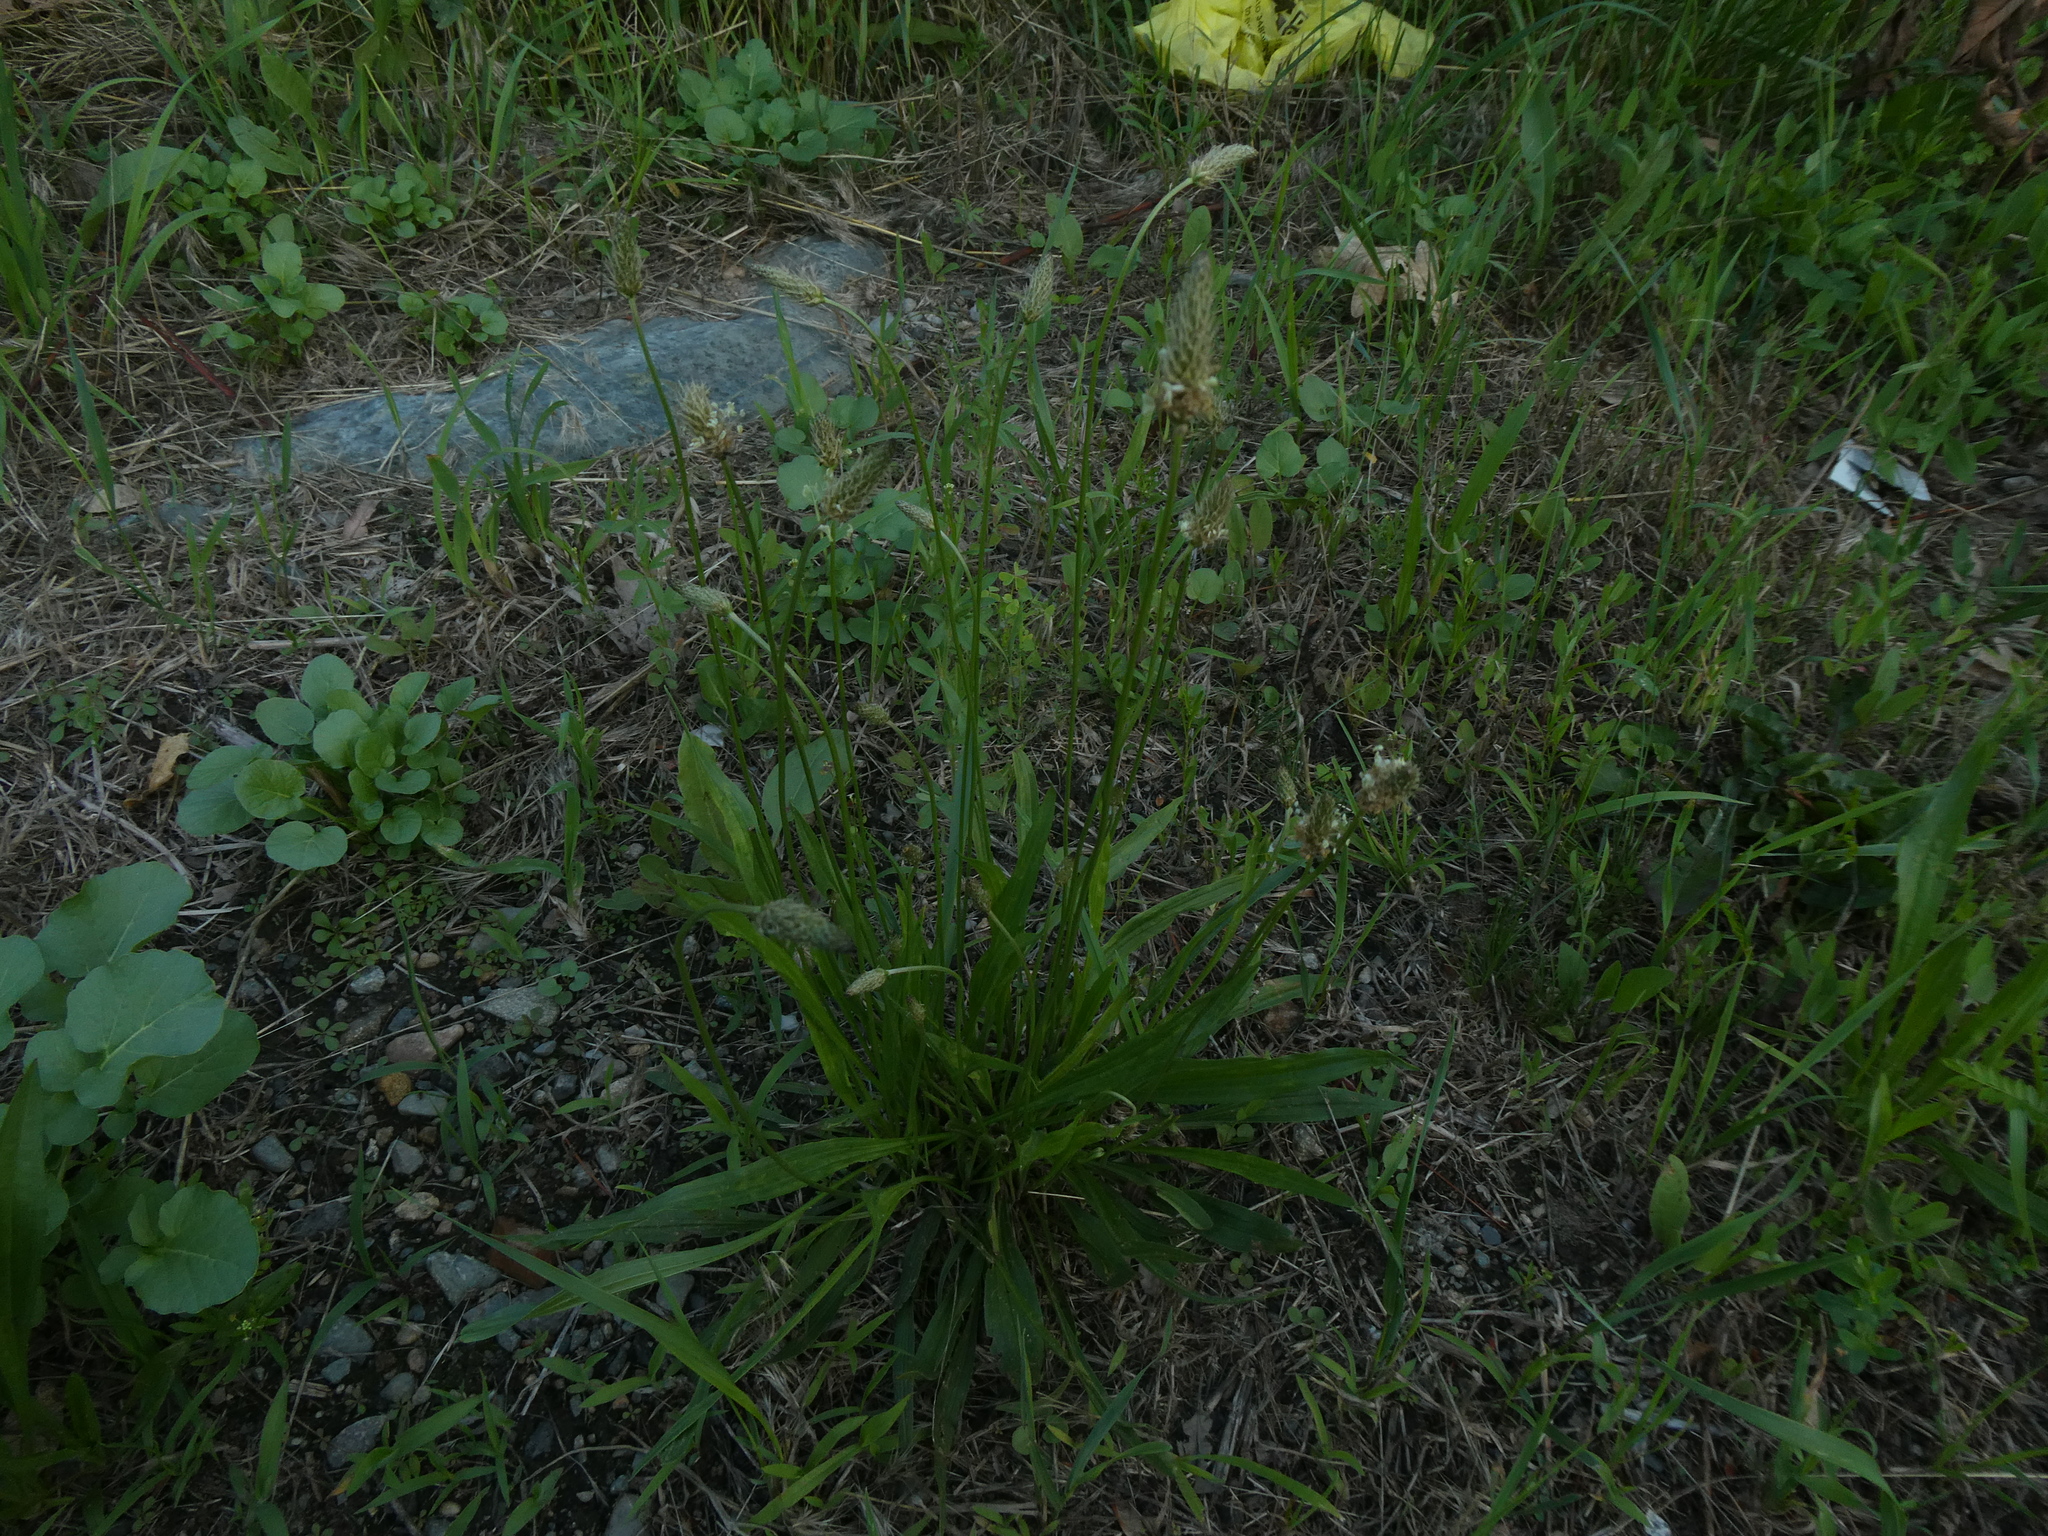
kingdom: Plantae
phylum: Tracheophyta
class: Magnoliopsida
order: Lamiales
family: Plantaginaceae
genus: Plantago
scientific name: Plantago lanceolata
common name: Ribwort plantain
